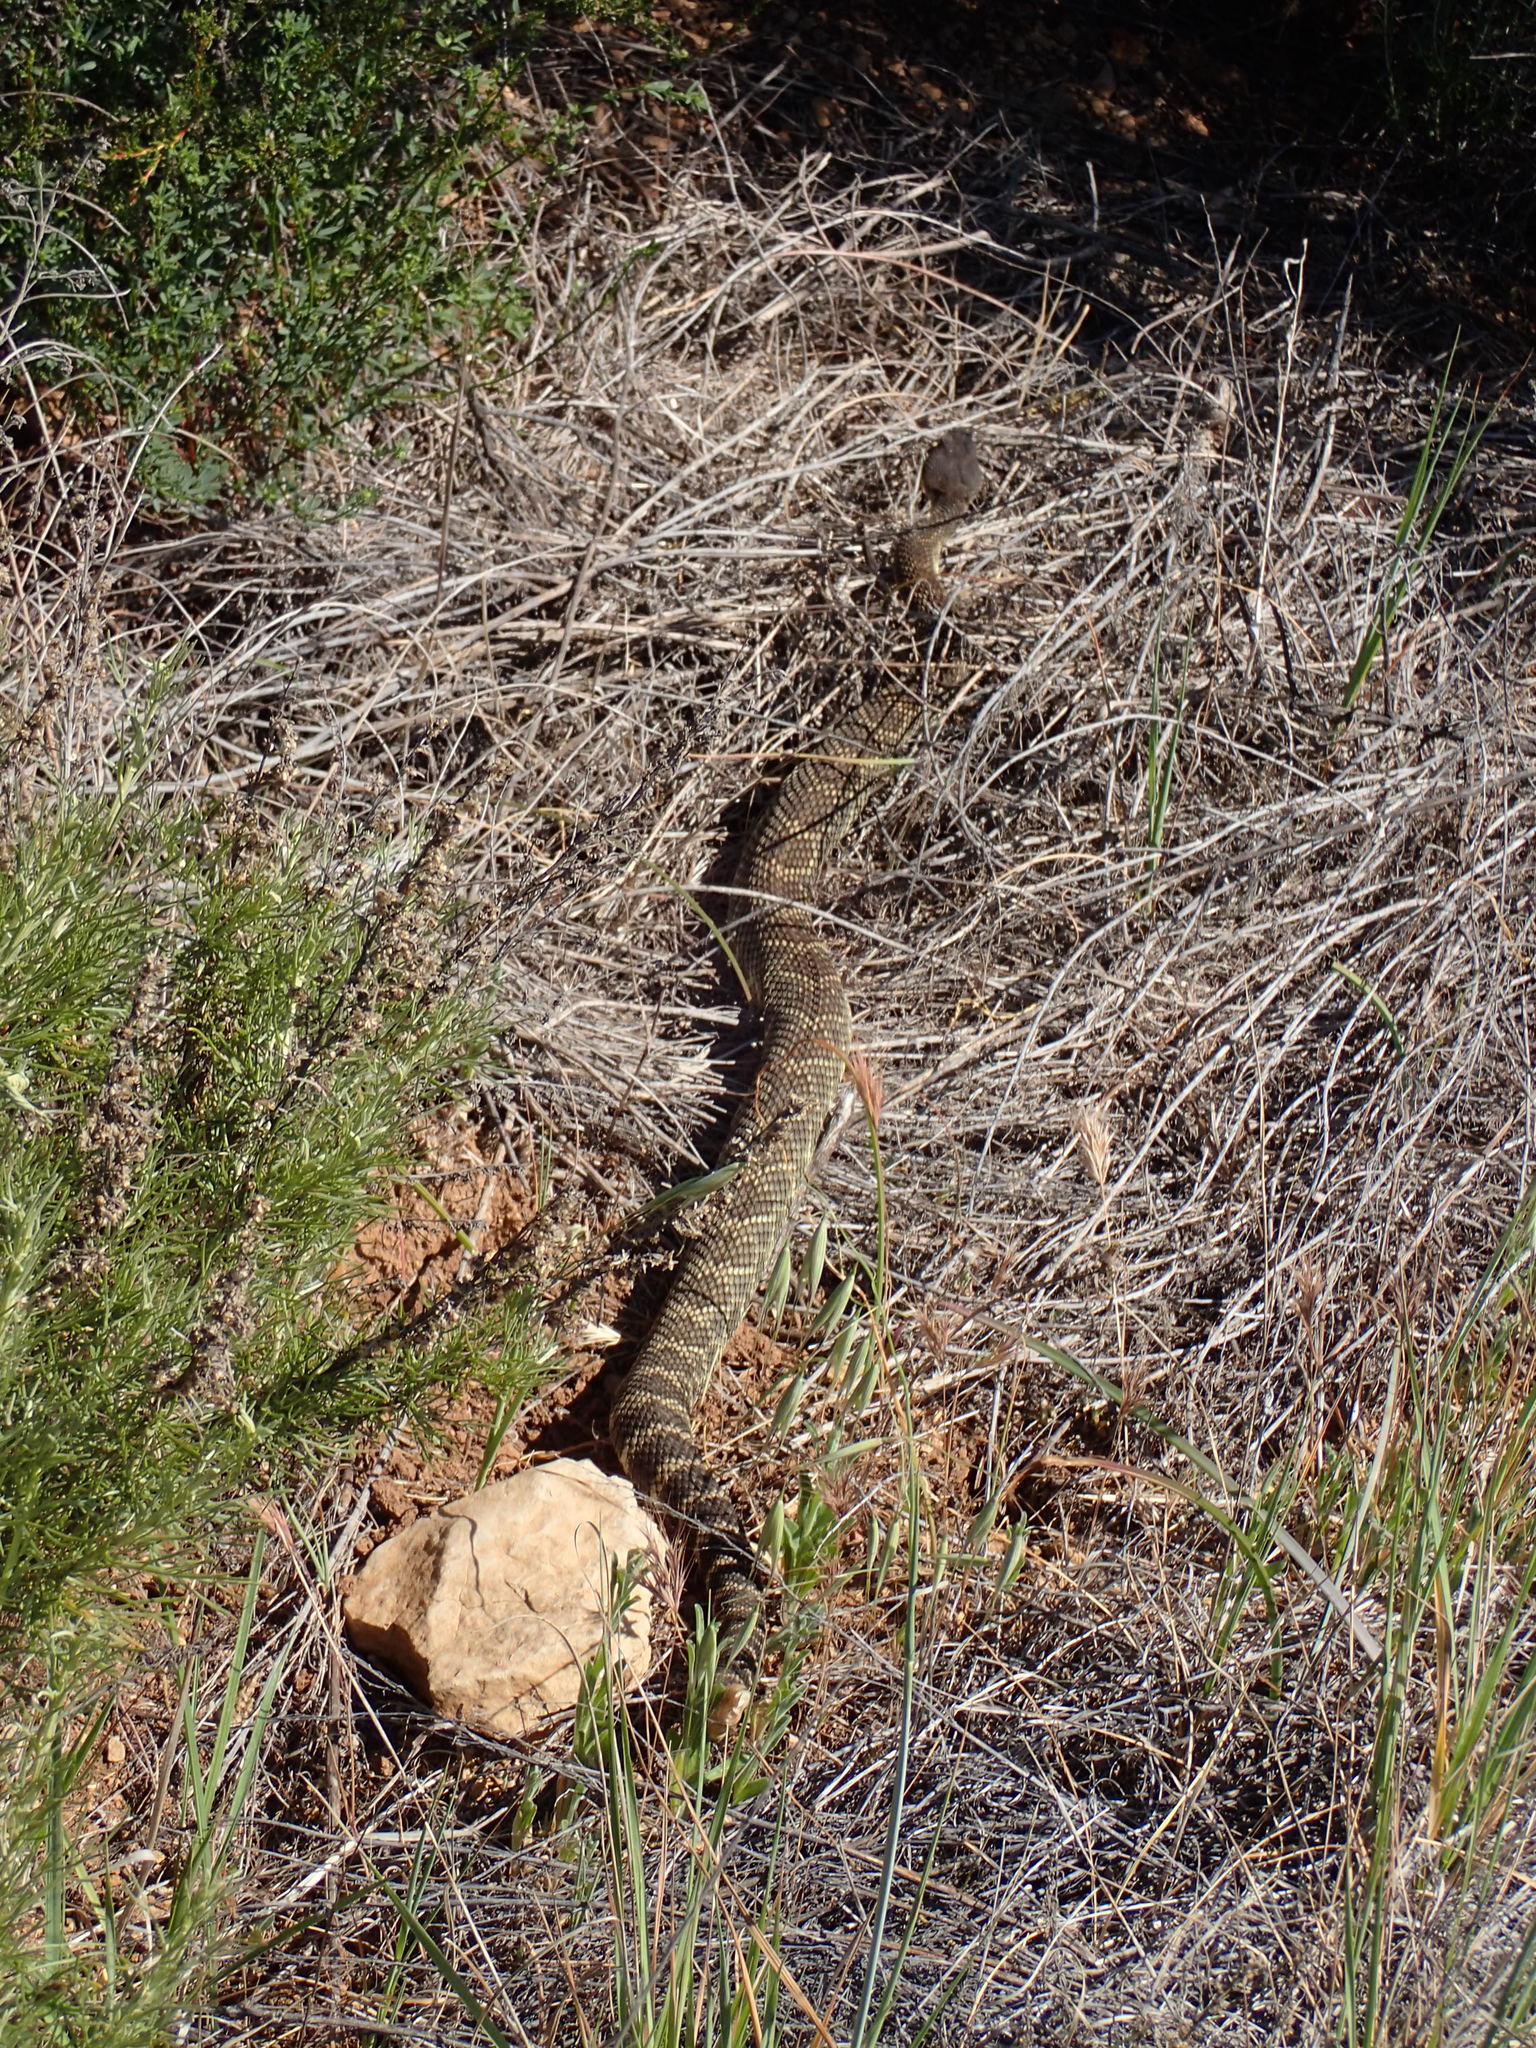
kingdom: Animalia
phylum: Chordata
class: Squamata
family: Viperidae
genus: Crotalus
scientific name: Crotalus oreganus
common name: Abyssus
